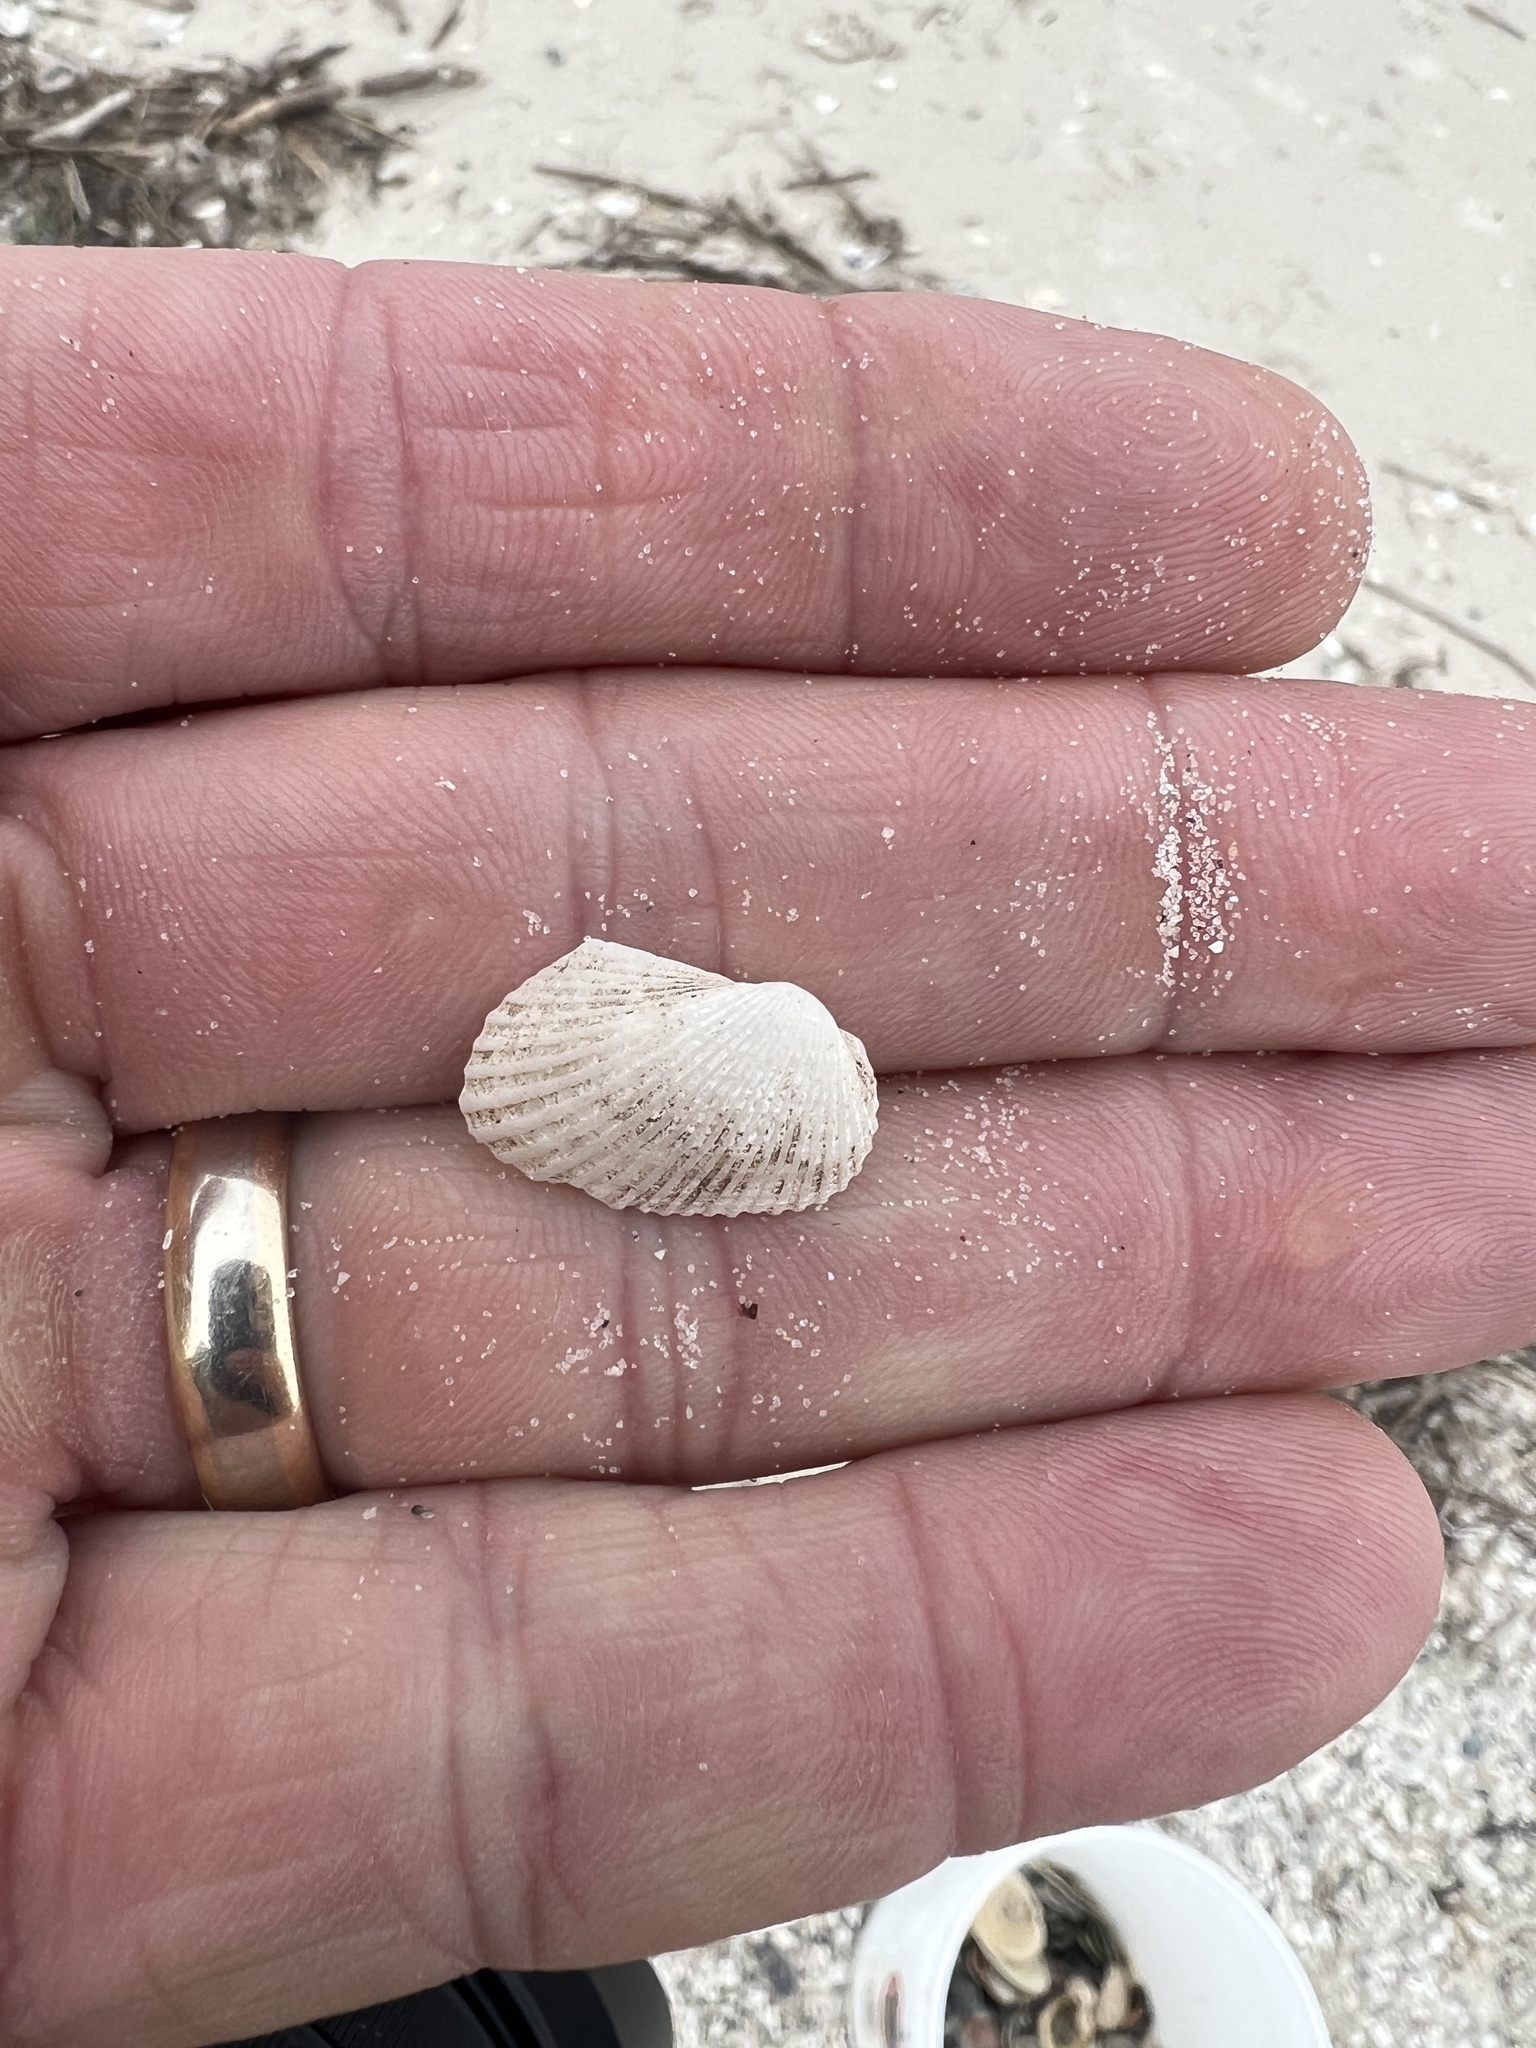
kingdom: Animalia
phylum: Mollusca
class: Bivalvia
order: Arcida
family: Arcidae
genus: Anadara
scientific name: Anadara transversa
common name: Transverse ark
